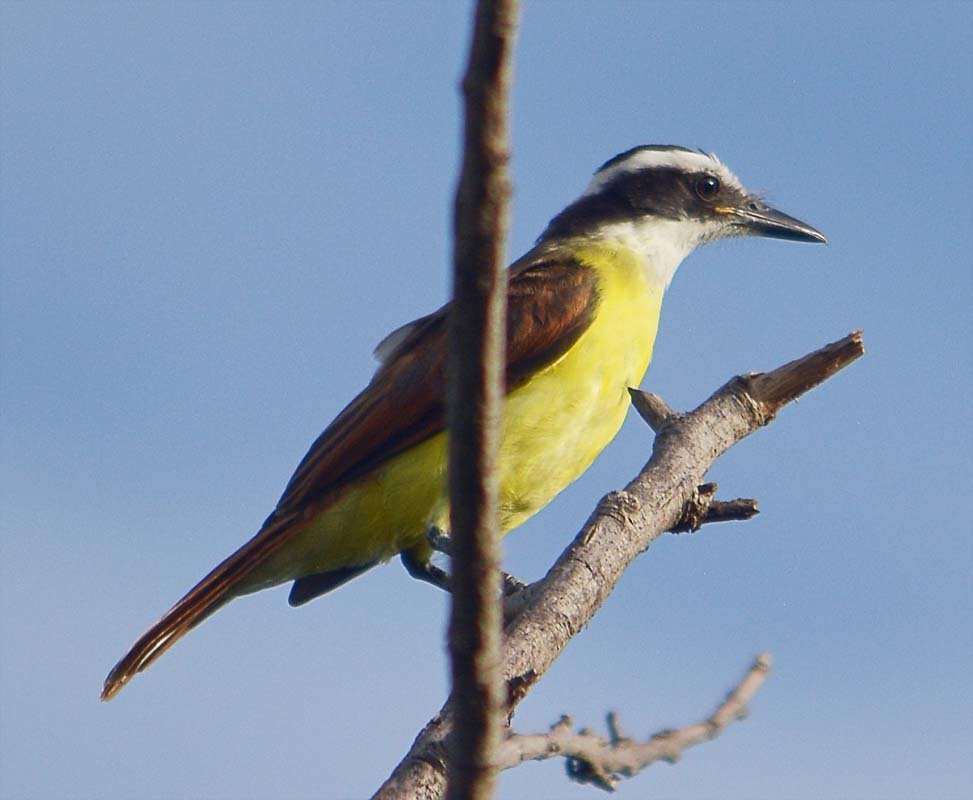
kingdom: Animalia
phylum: Chordata
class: Aves
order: Passeriformes
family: Tyrannidae
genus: Pitangus
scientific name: Pitangus sulphuratus
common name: Great kiskadee
